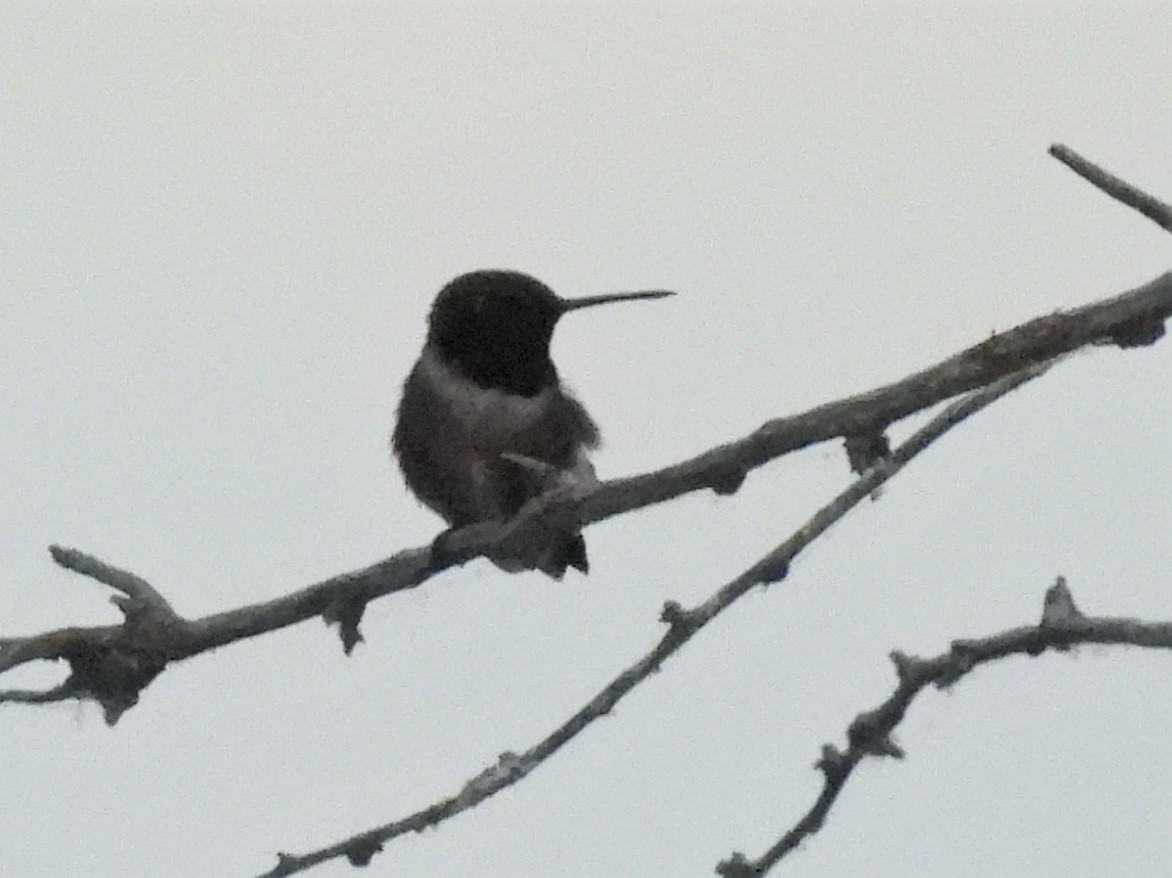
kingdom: Animalia
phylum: Chordata
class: Aves
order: Apodiformes
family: Trochilidae
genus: Archilochus
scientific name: Archilochus alexandri
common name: Black-chinned hummingbird
